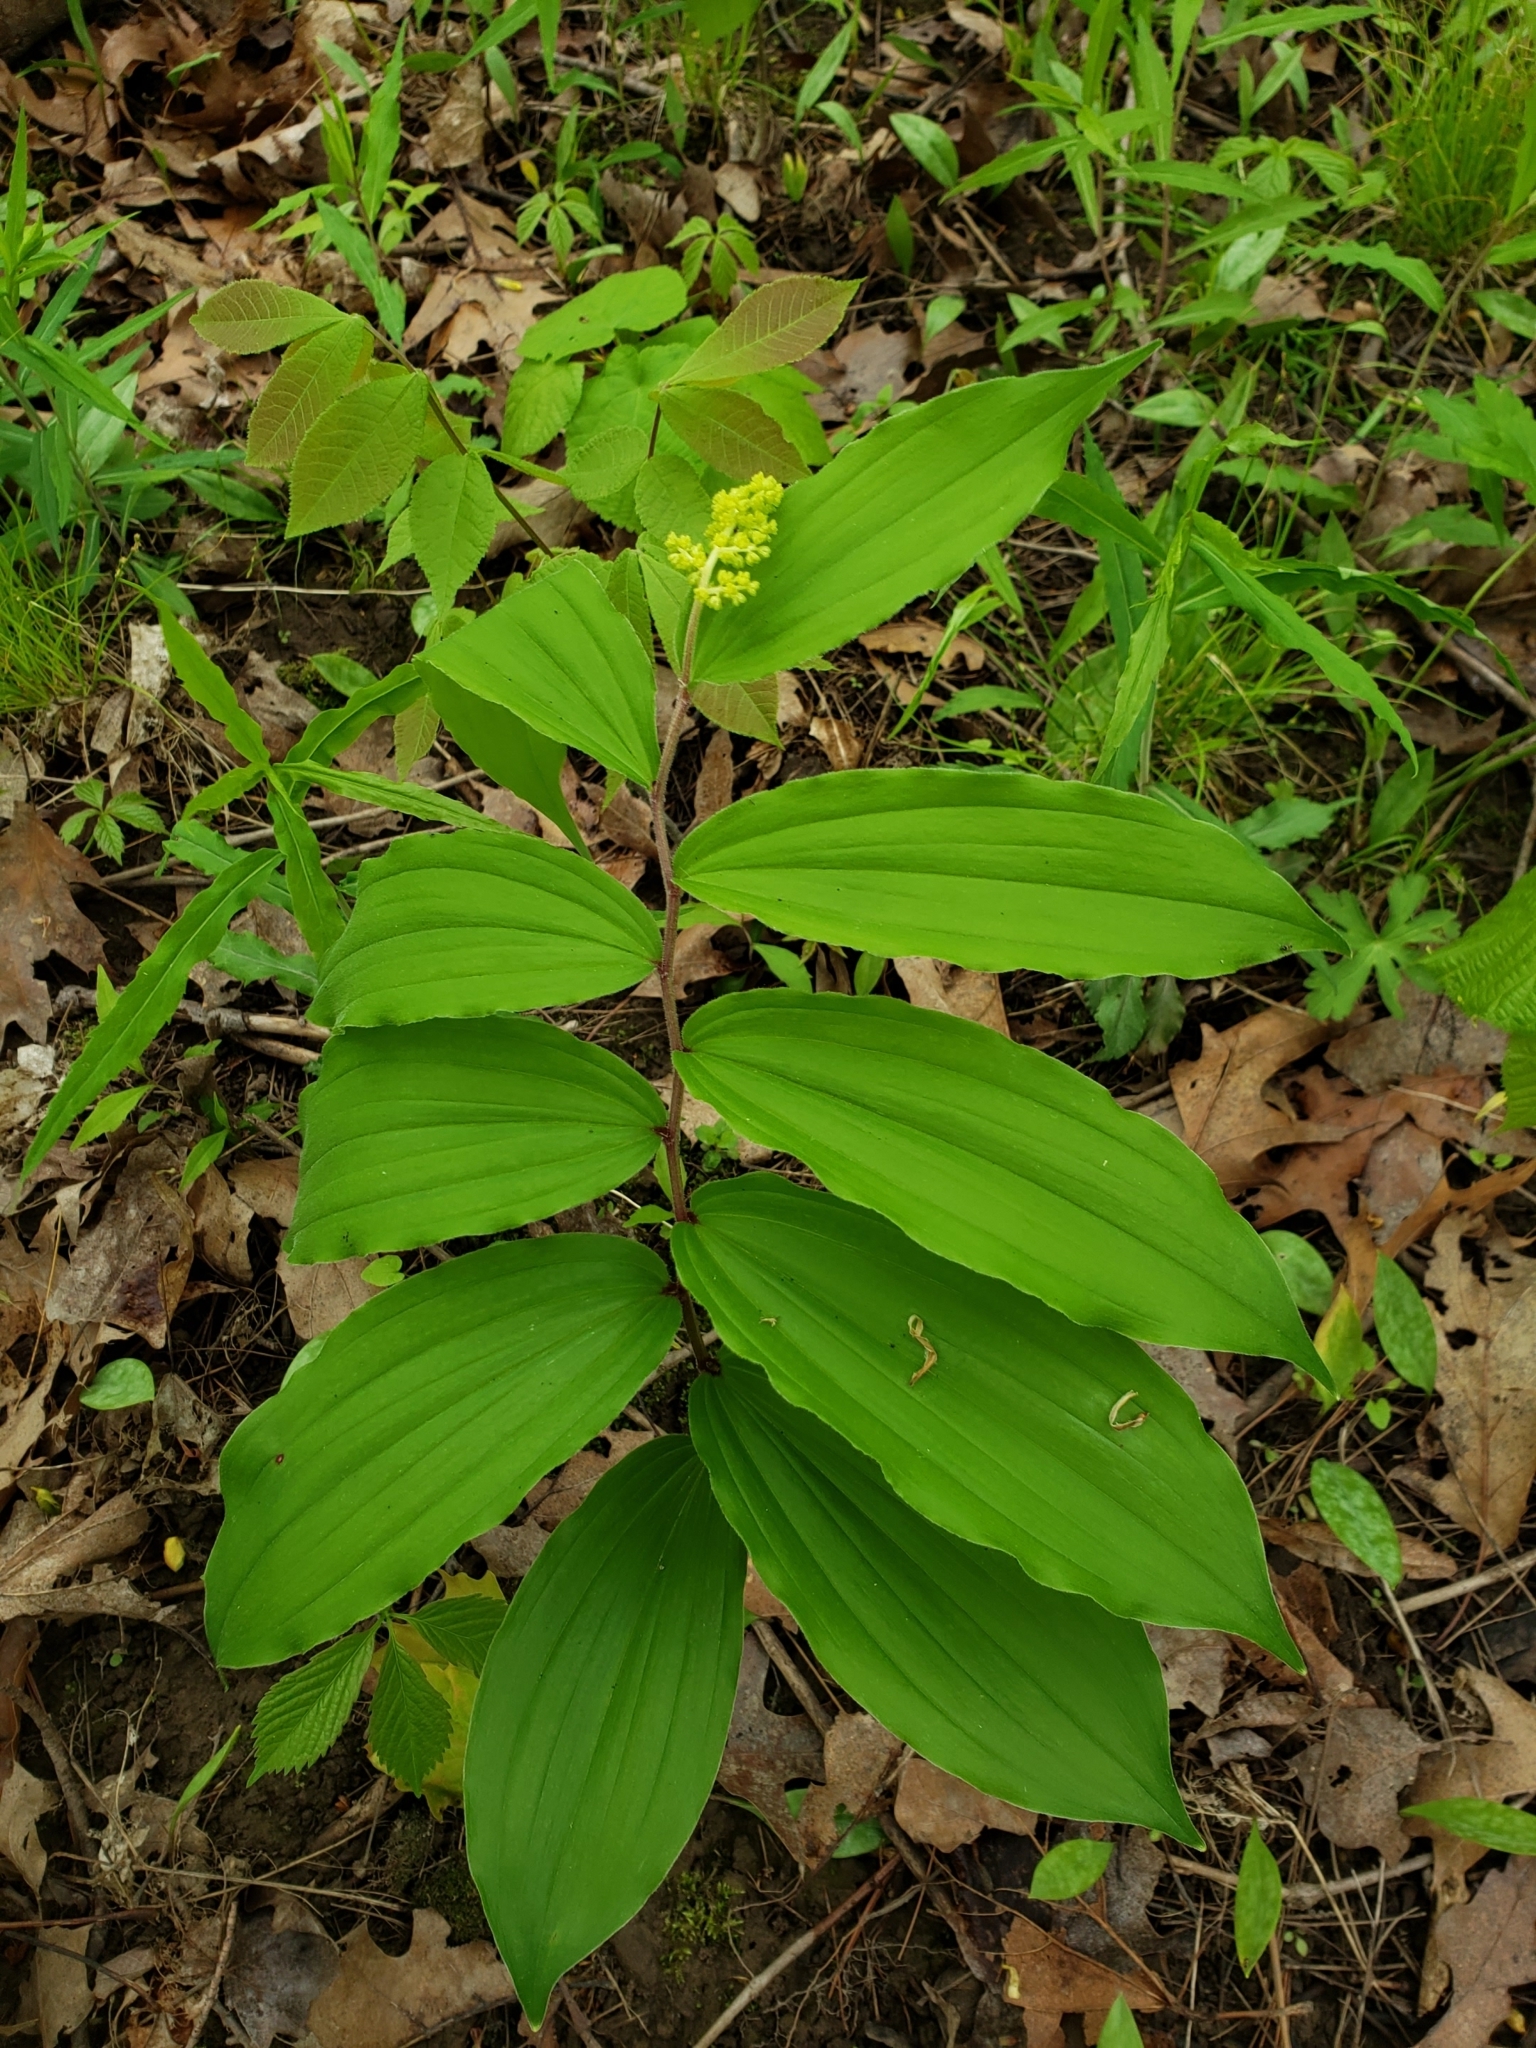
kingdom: Plantae
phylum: Tracheophyta
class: Liliopsida
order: Asparagales
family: Asparagaceae
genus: Maianthemum
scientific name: Maianthemum racemosum
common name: False spikenard
